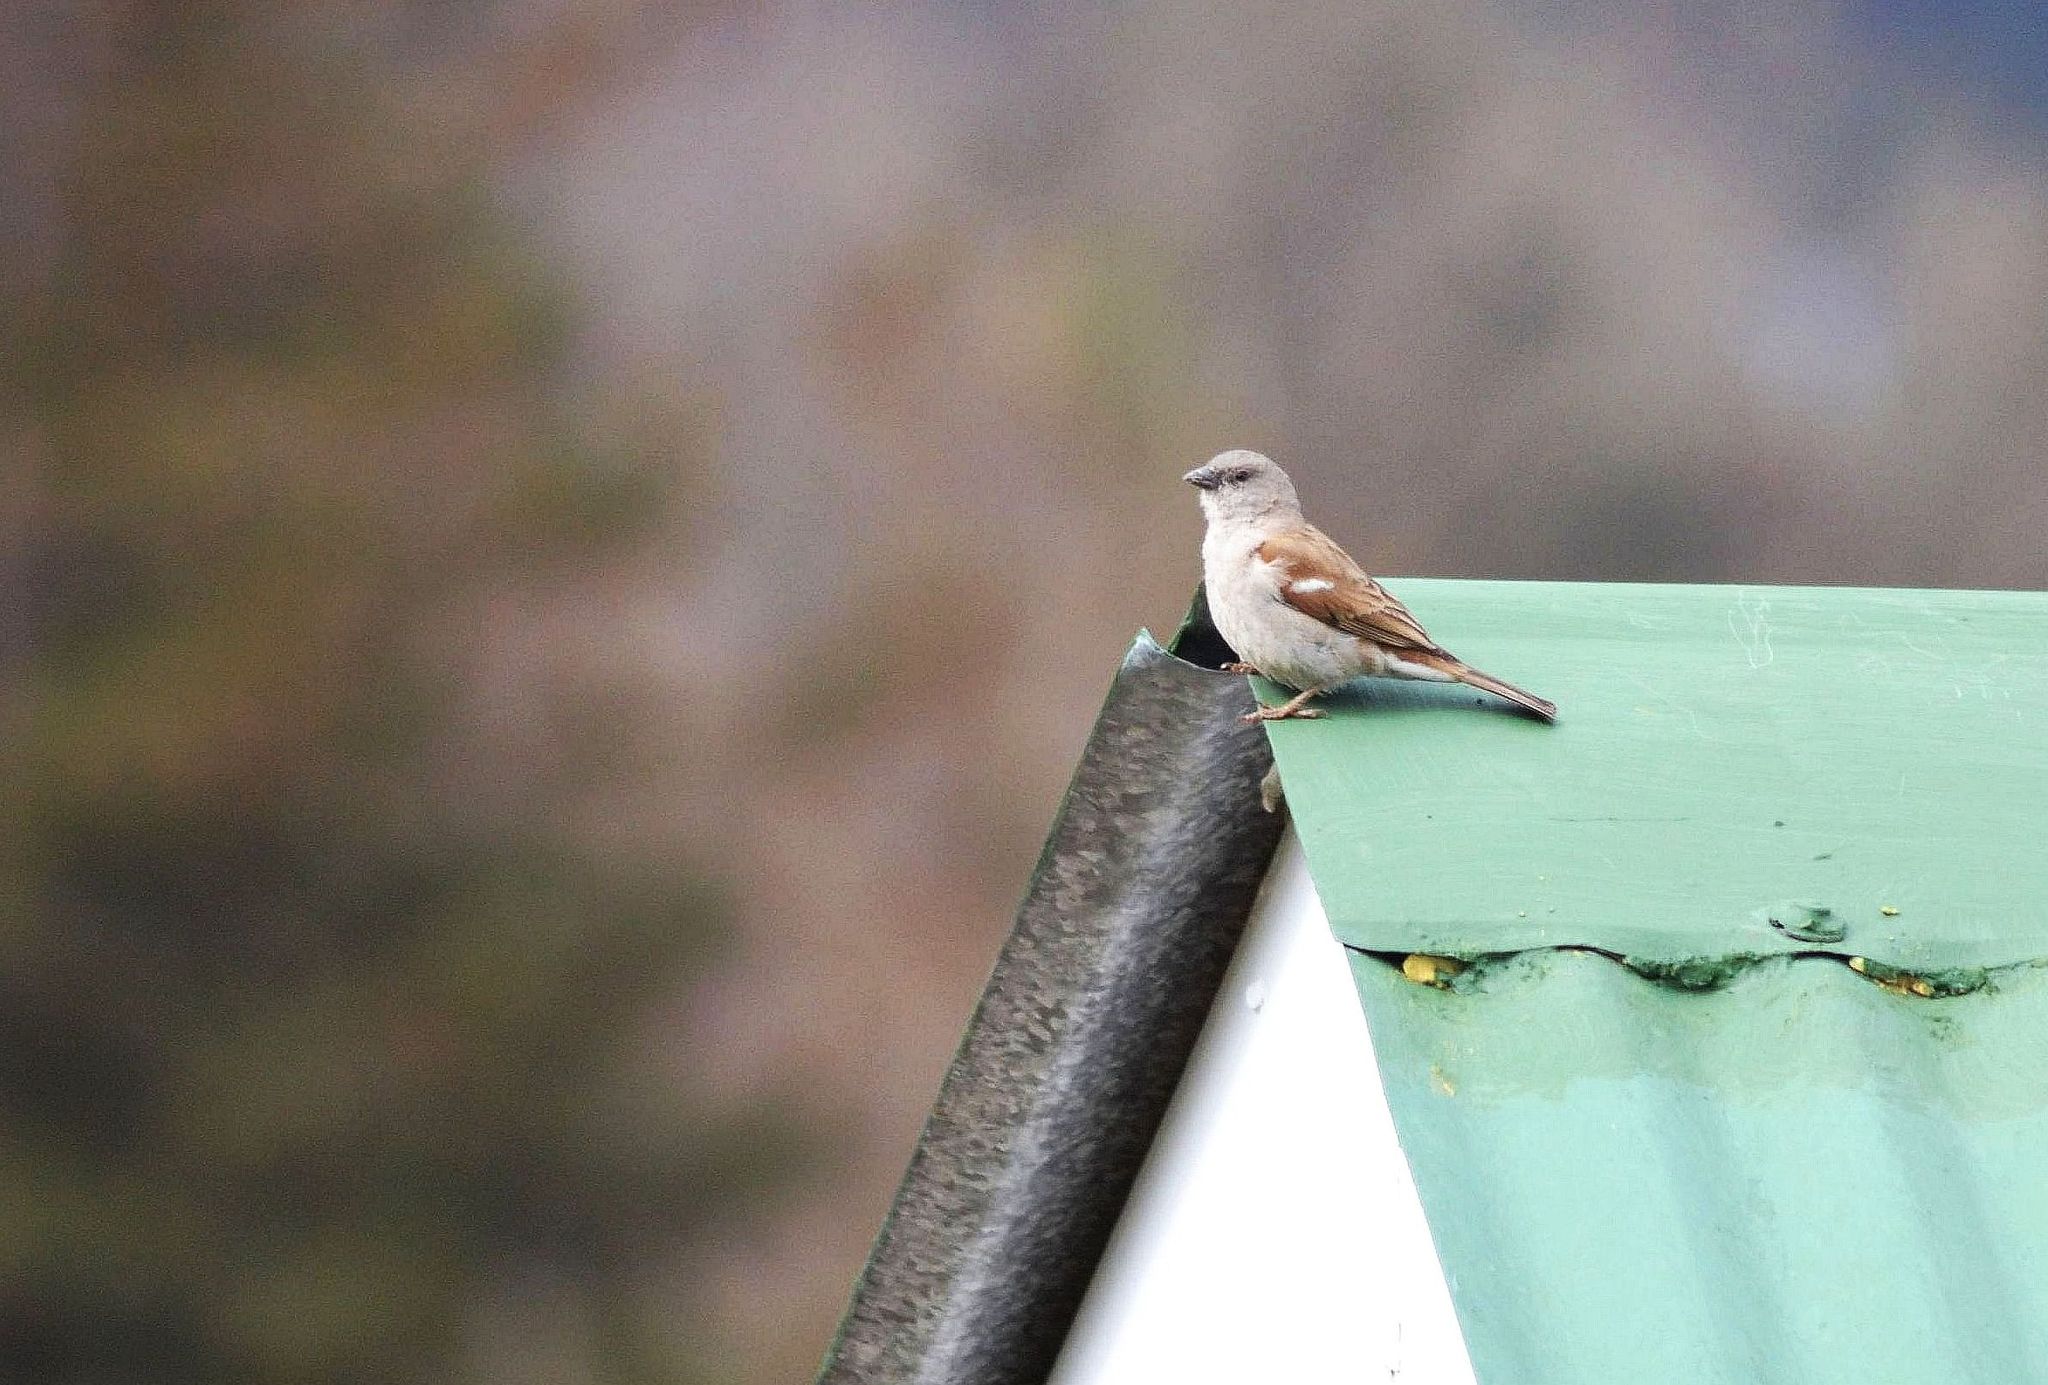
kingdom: Animalia
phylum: Chordata
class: Aves
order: Passeriformes
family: Passeridae
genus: Passer
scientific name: Passer diffusus
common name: Southern grey-headed sparrow
